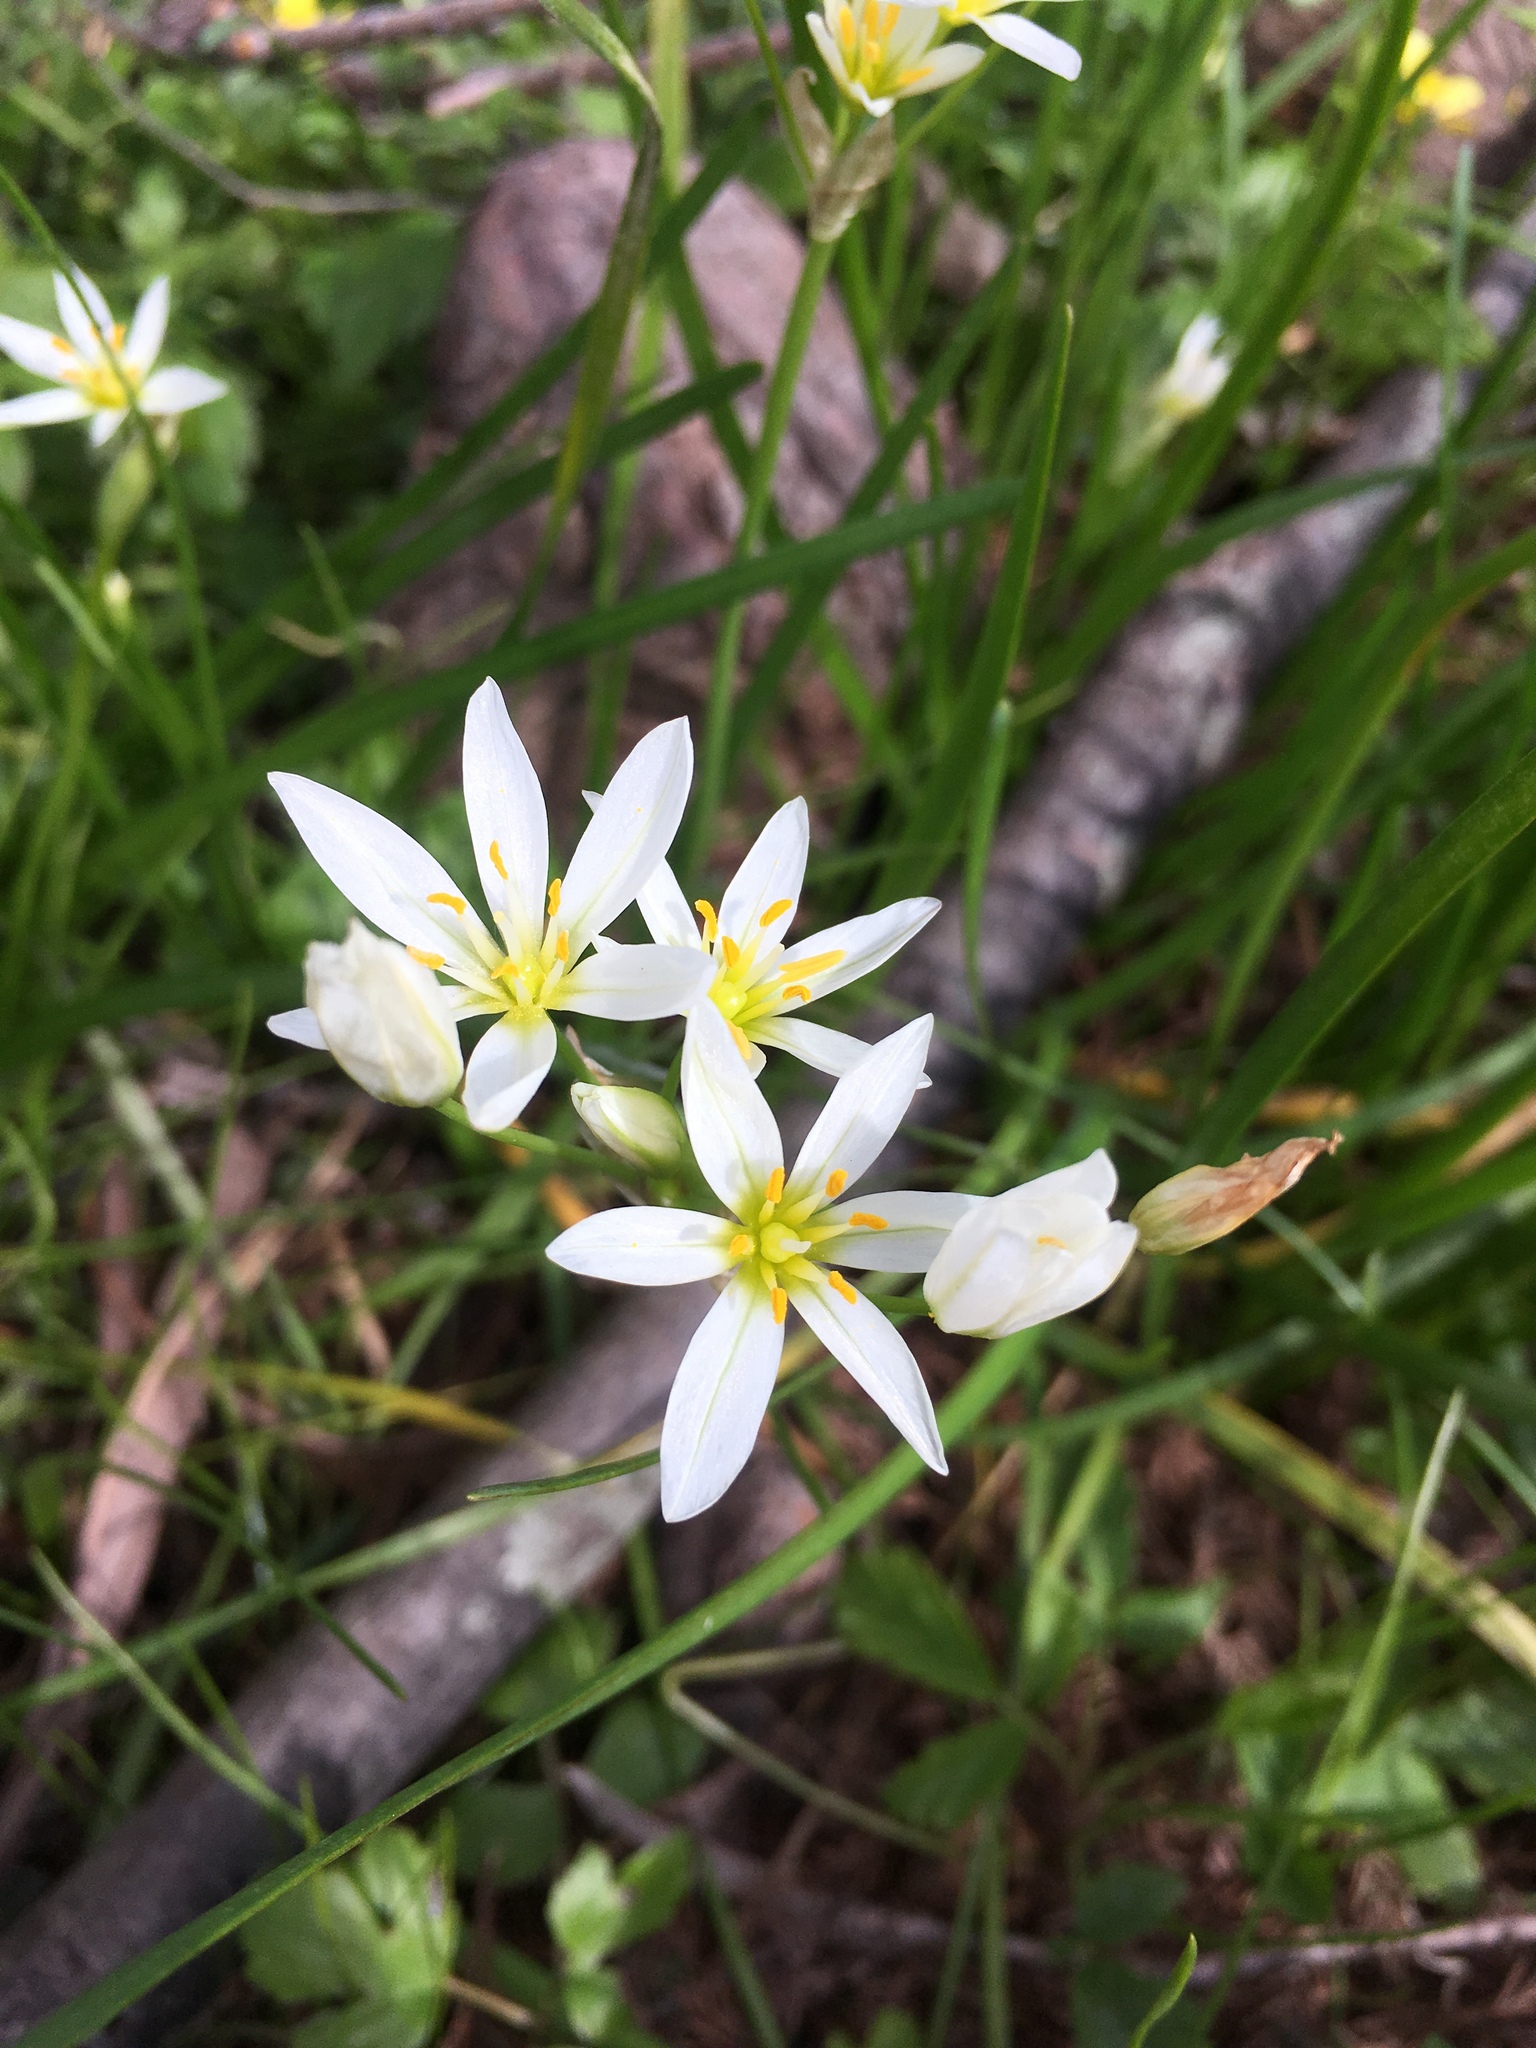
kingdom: Plantae
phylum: Tracheophyta
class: Liliopsida
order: Asparagales
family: Amaryllidaceae
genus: Nothoscordum
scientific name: Nothoscordum bivalve
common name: Crow-poison
